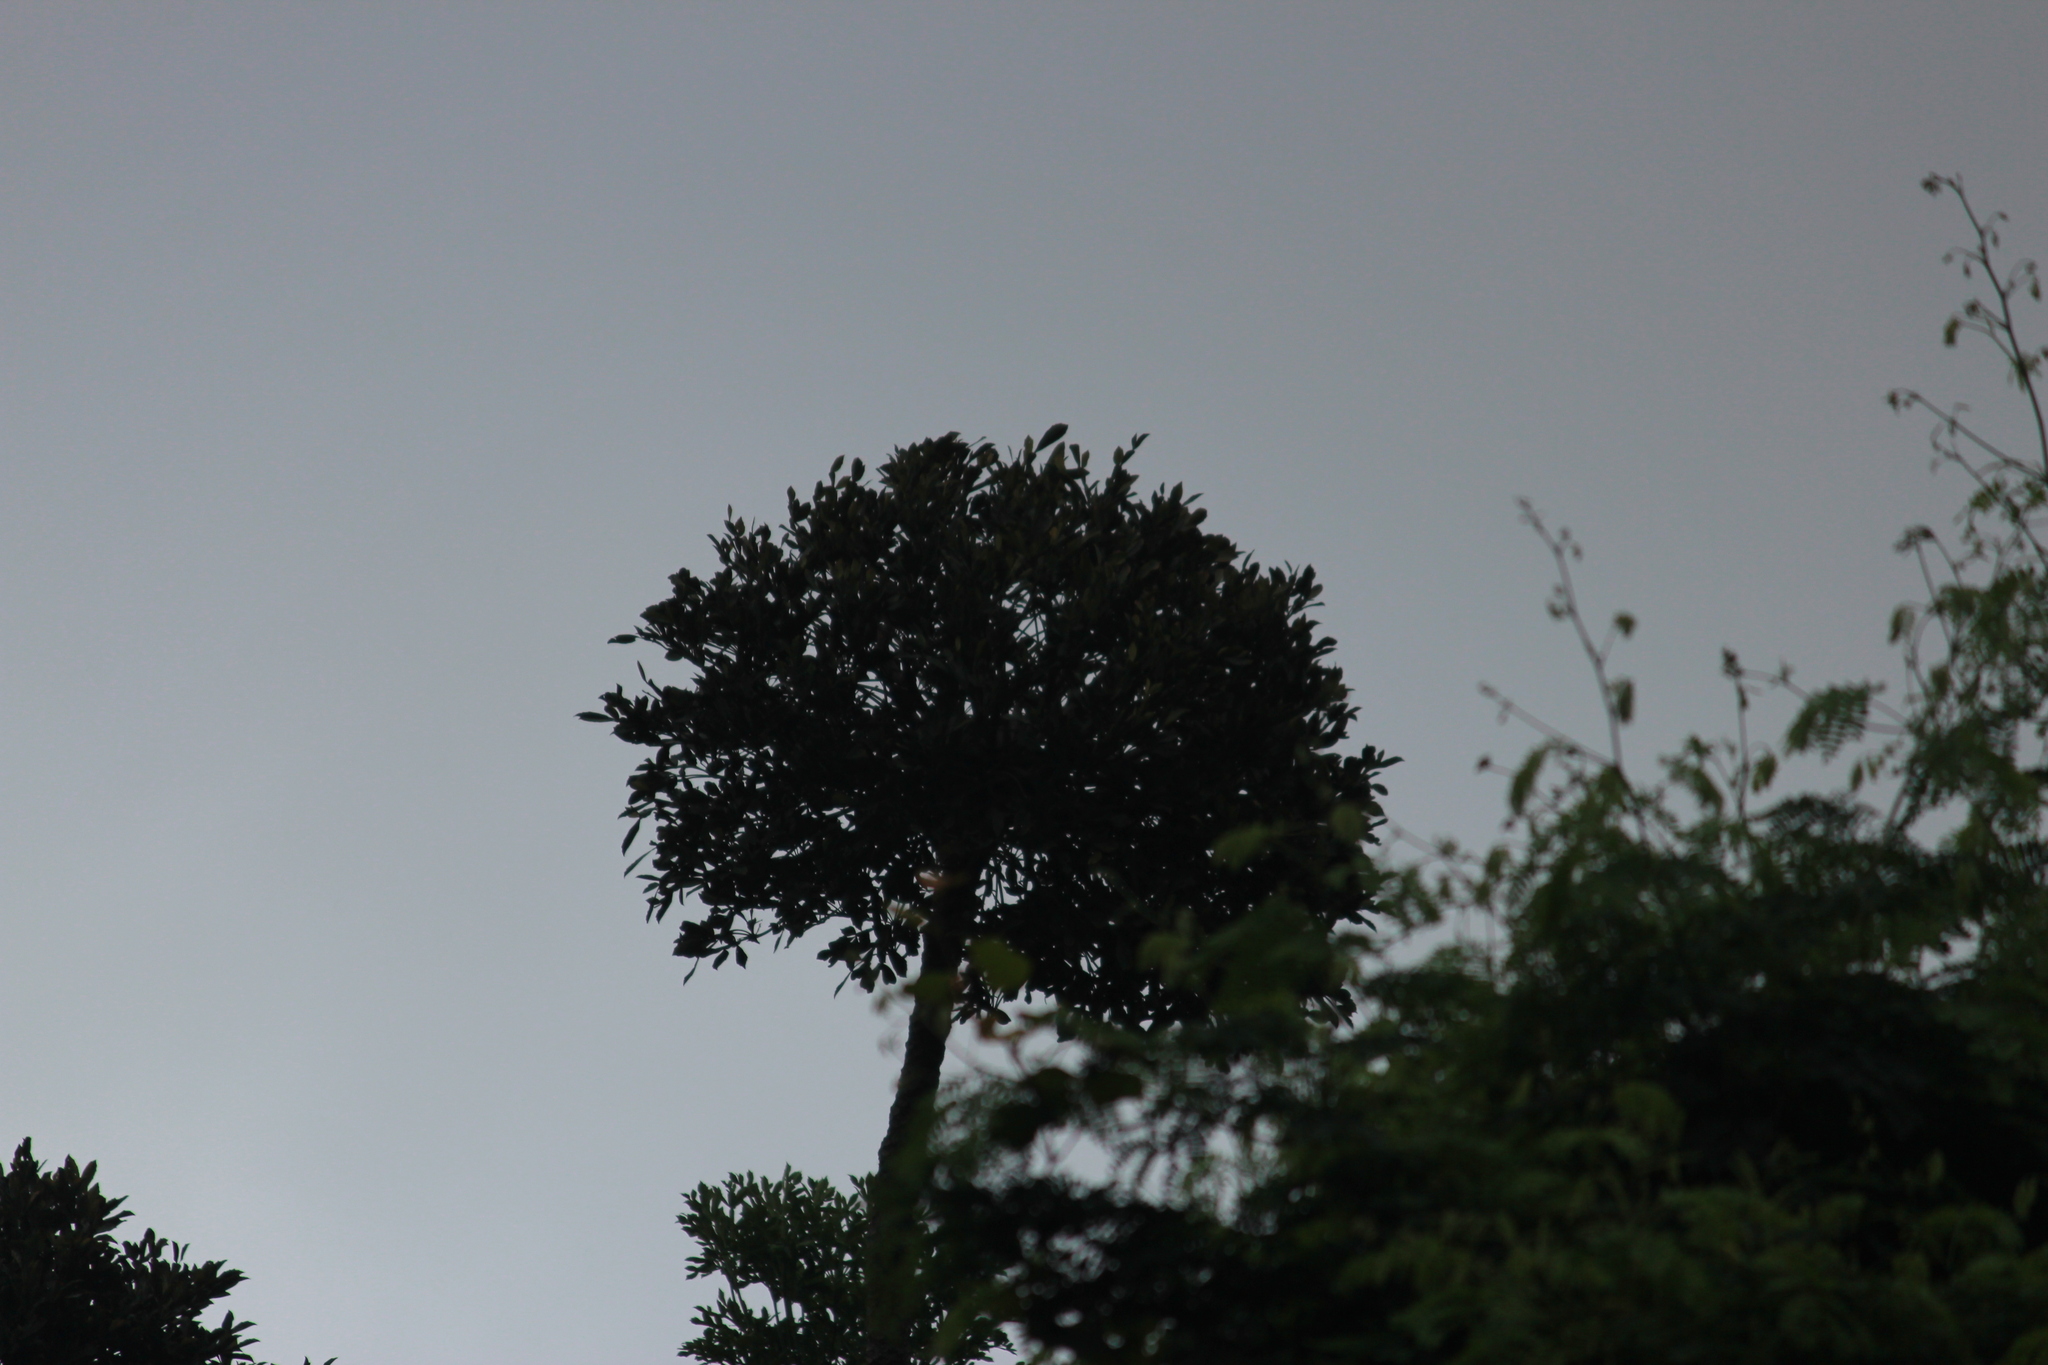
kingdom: Plantae
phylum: Tracheophyta
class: Magnoliopsida
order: Apiales
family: Araliaceae
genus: Cussonia
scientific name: Cussonia sphaerocephala
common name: Forest cabbage-tree
